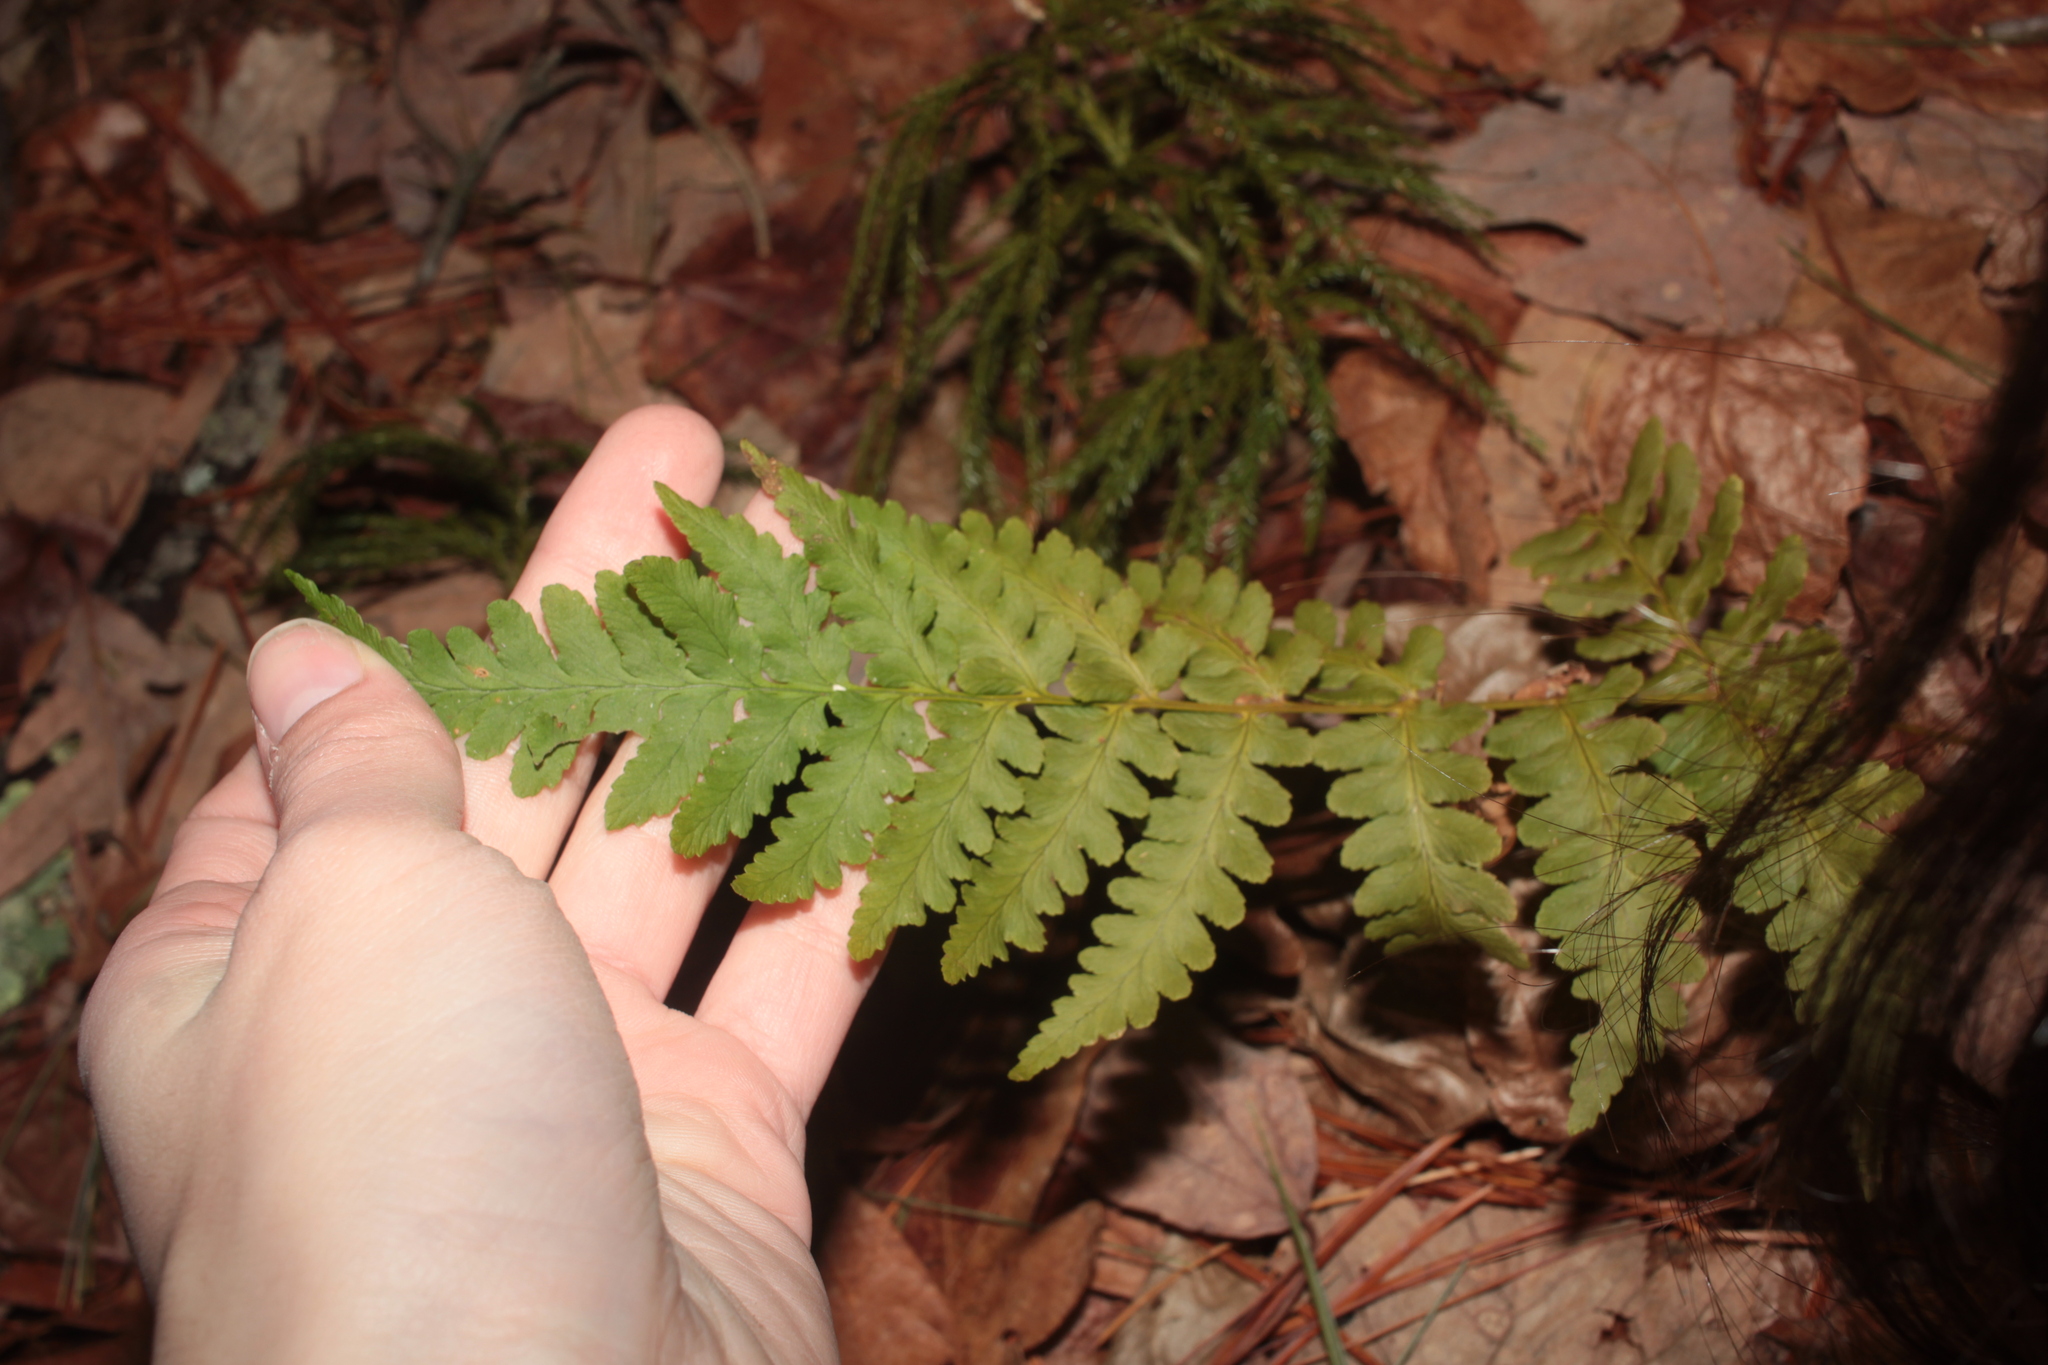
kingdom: Plantae
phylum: Tracheophyta
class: Polypodiopsida
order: Polypodiales
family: Dryopteridaceae
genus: Dryopteris
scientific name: Dryopteris marginalis
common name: Marginal wood fern
